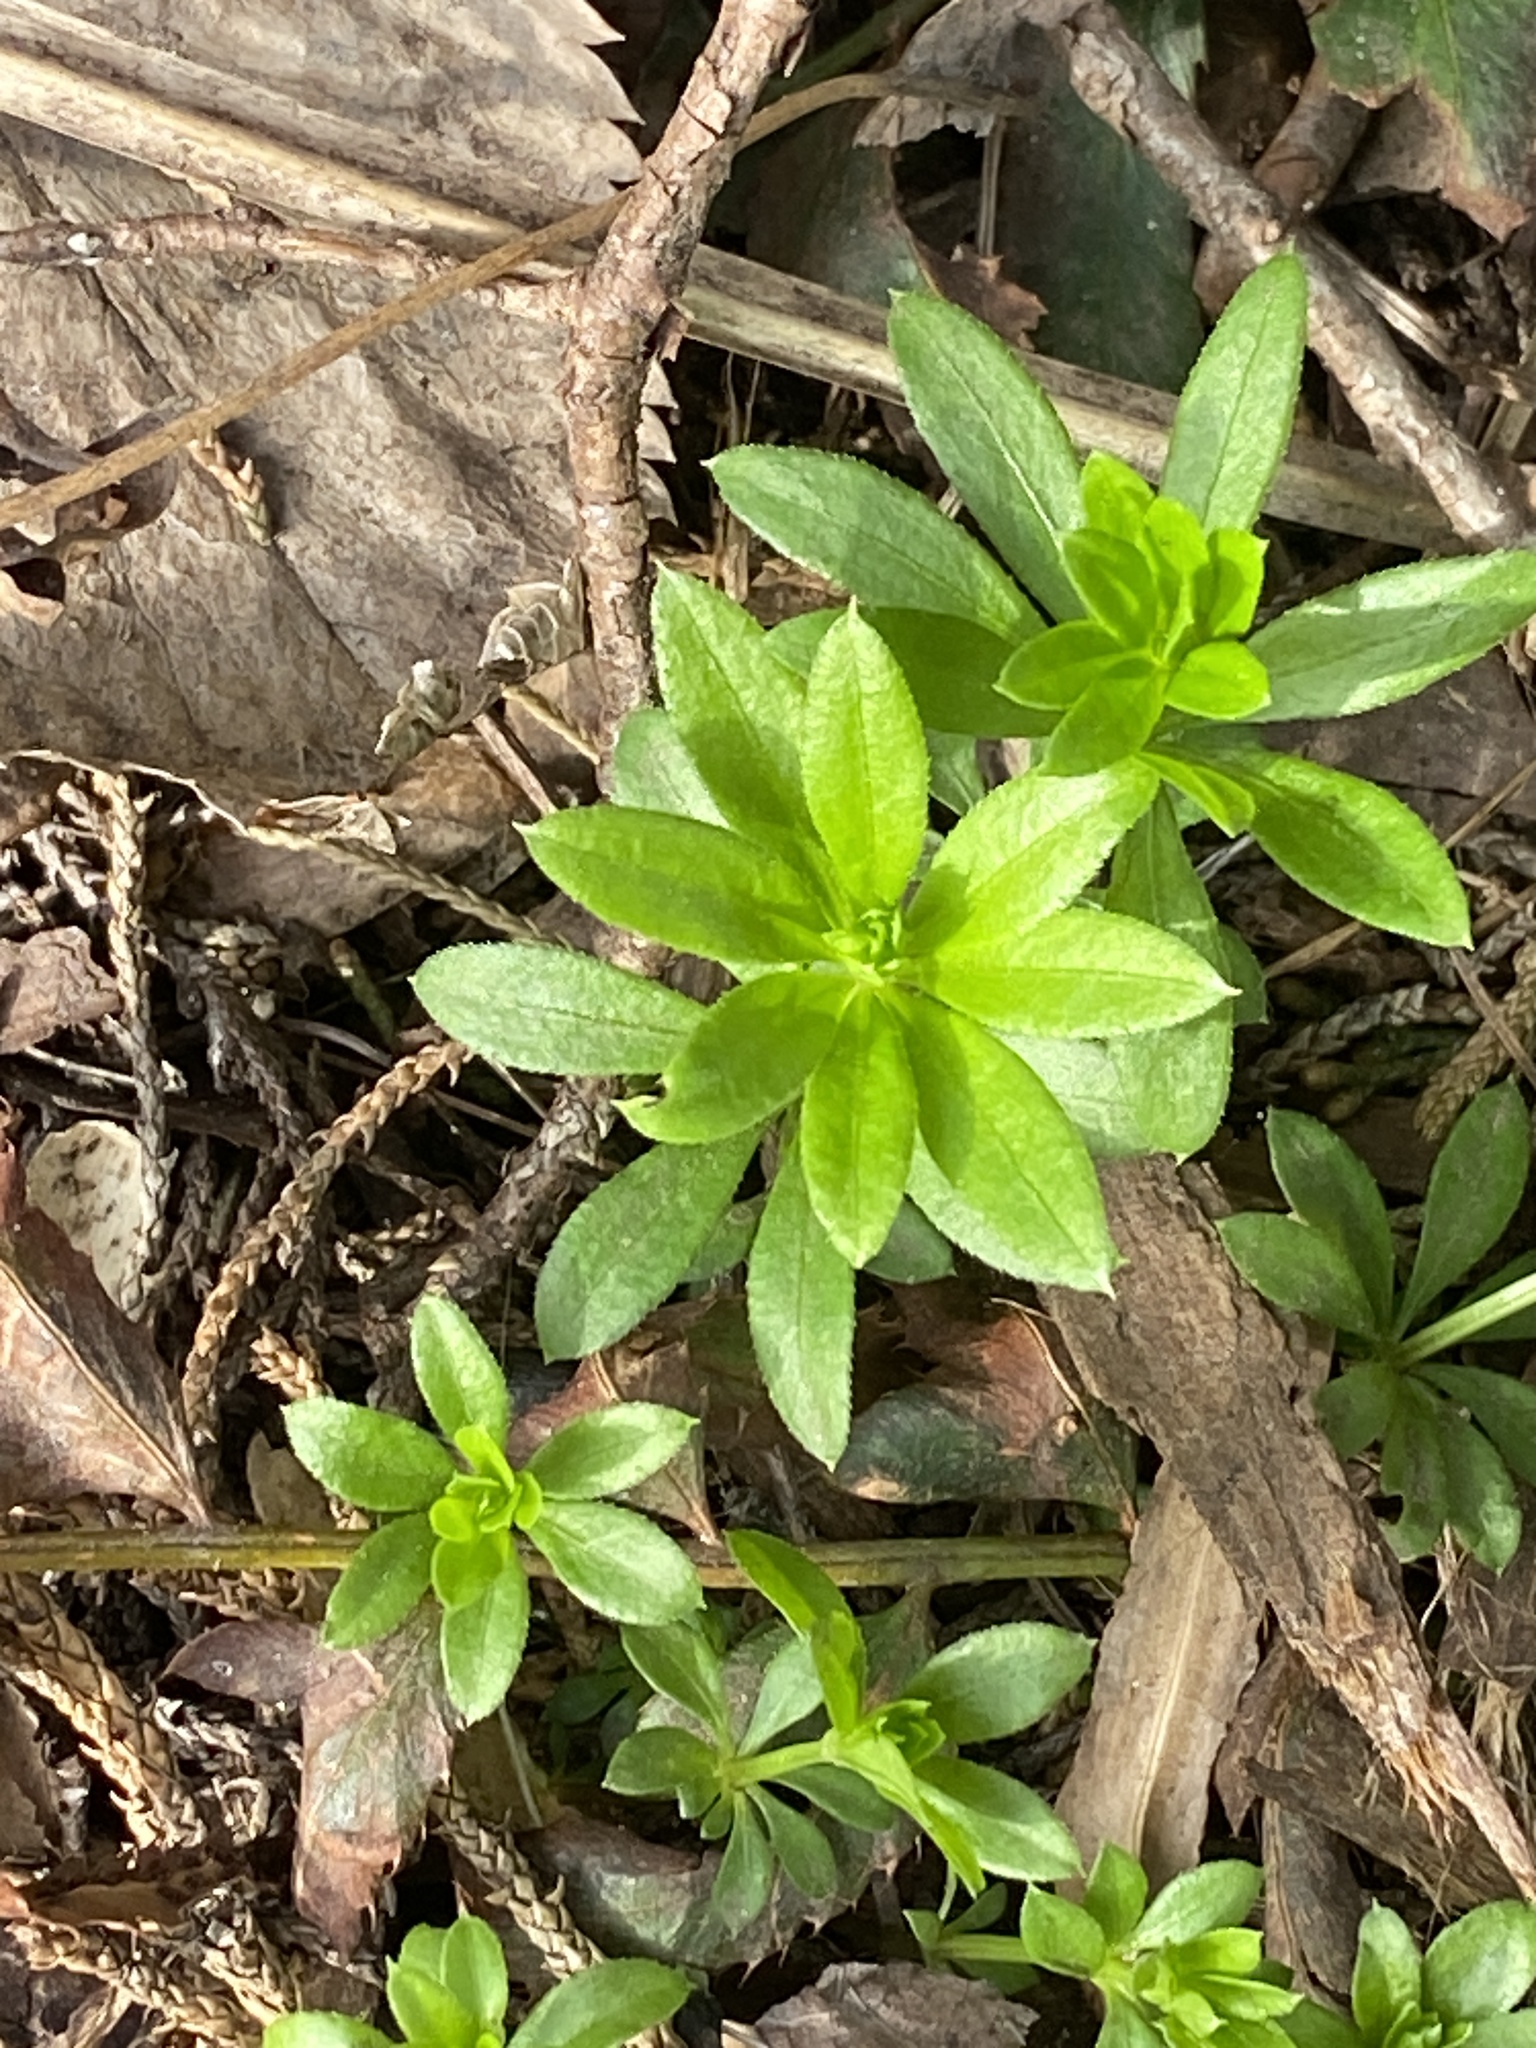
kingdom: Plantae
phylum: Tracheophyta
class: Magnoliopsida
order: Gentianales
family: Rubiaceae
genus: Galium
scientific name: Galium odoratum
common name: Sweet woodruff
